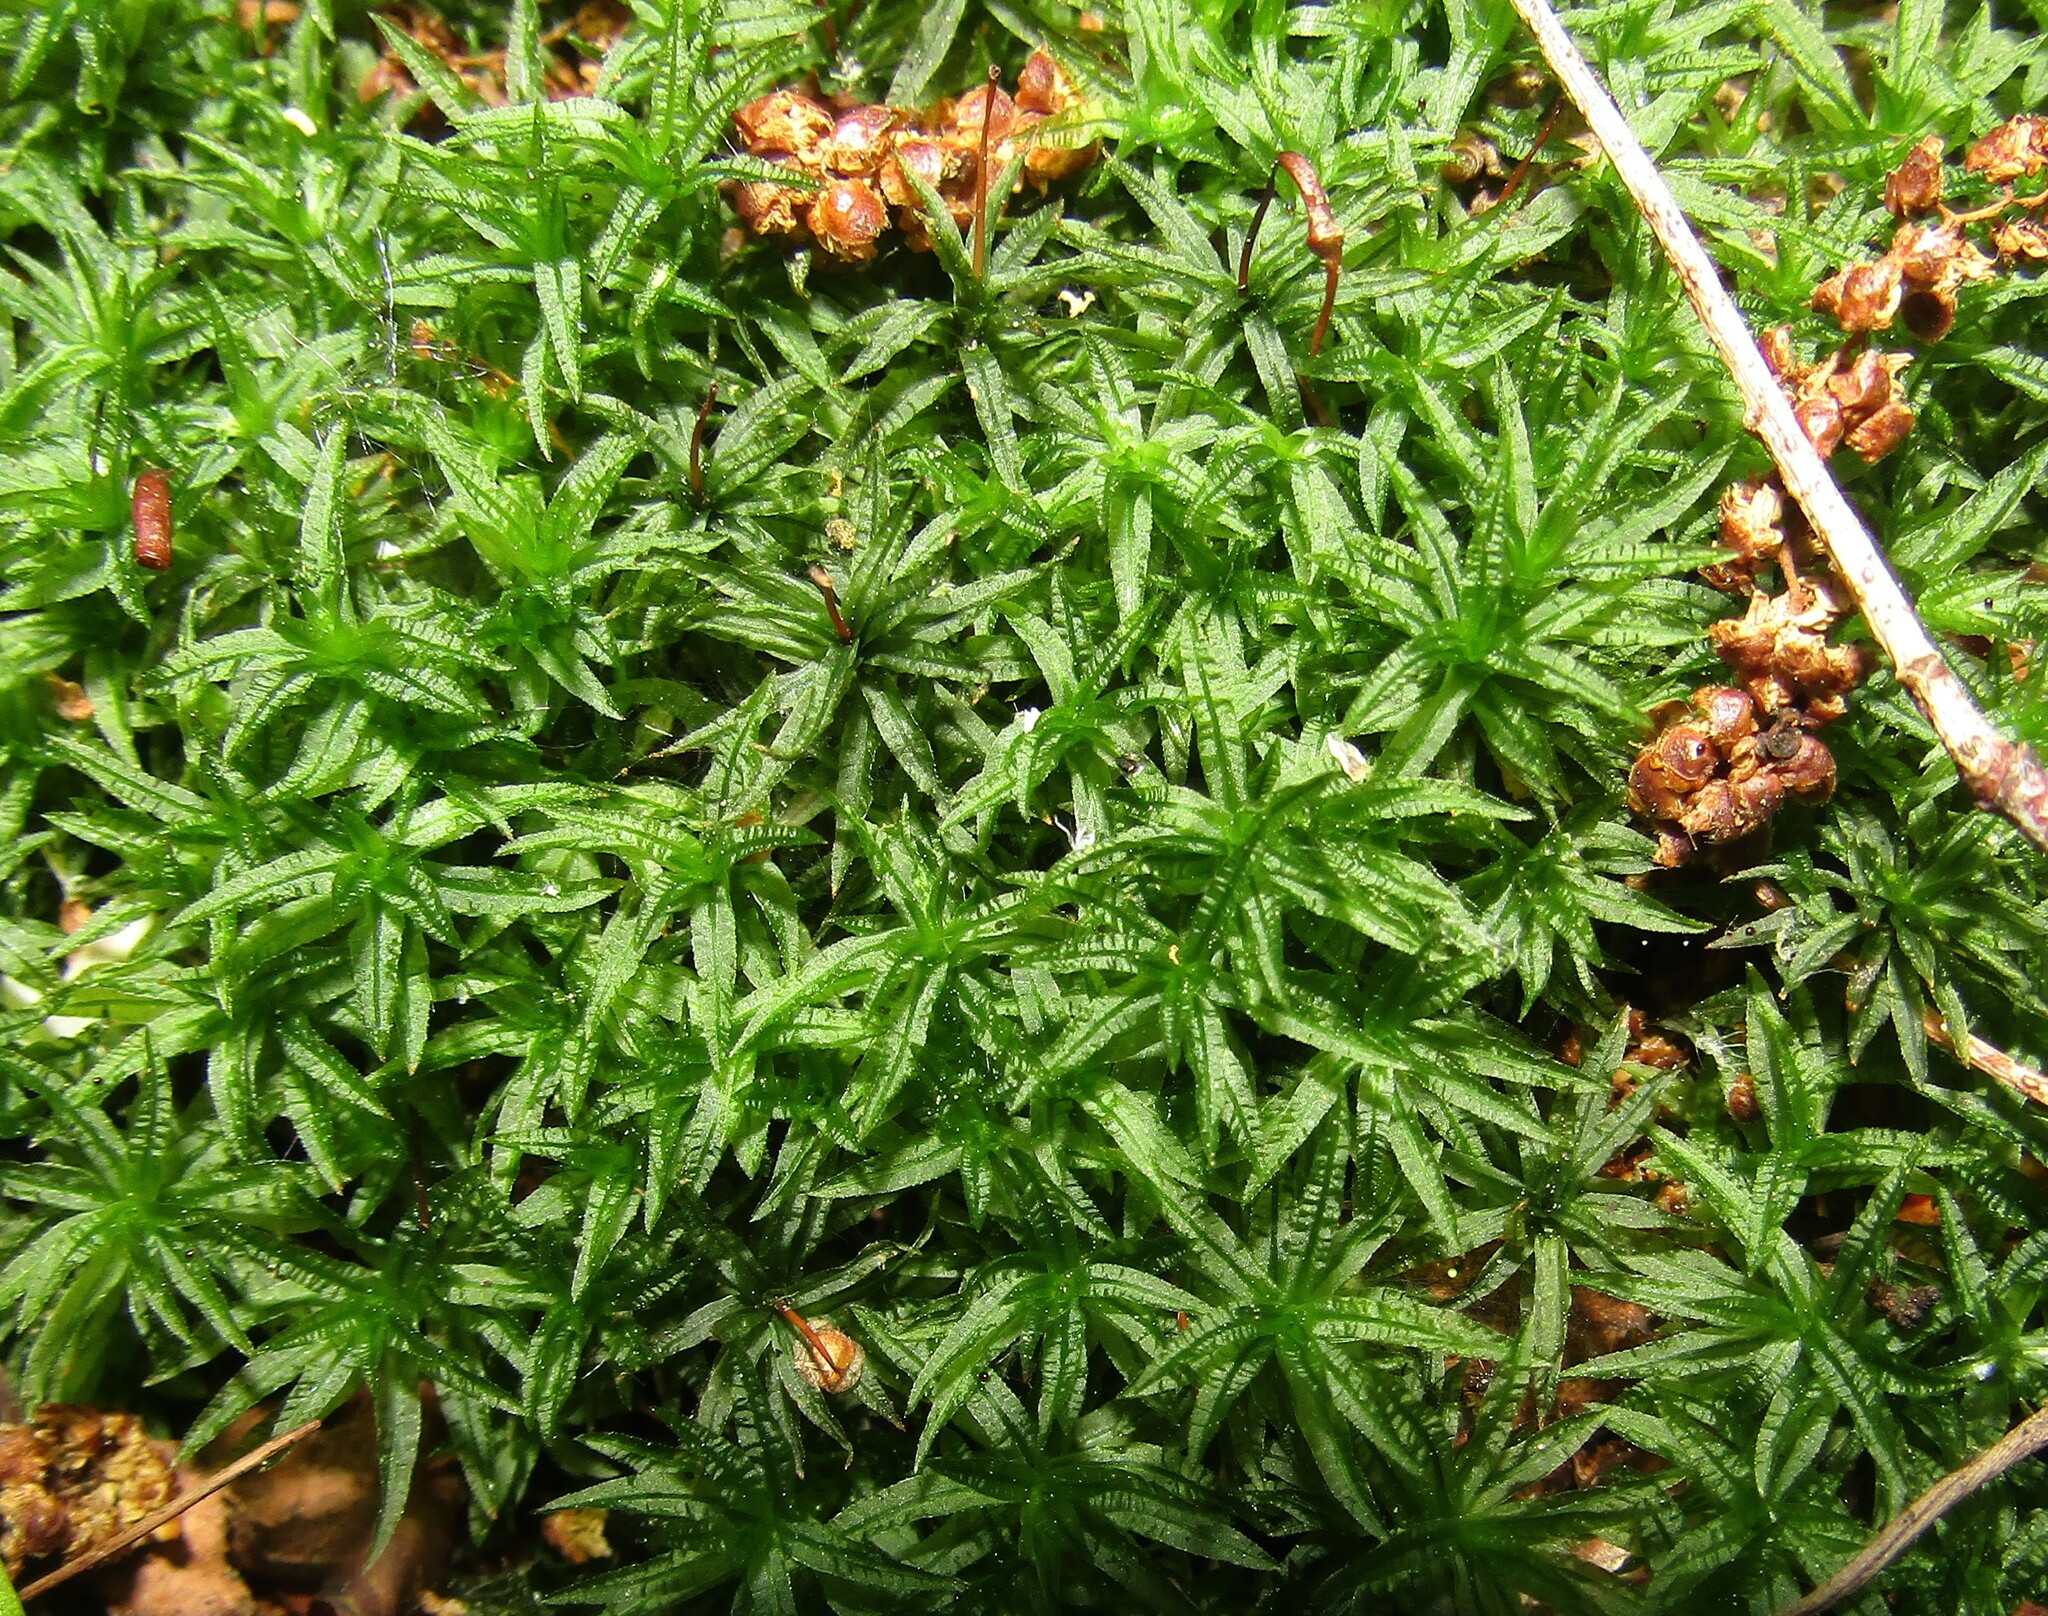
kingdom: Plantae
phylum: Bryophyta
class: Polytrichopsida
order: Polytrichales
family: Polytrichaceae
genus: Atrichum
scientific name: Atrichum undulatum
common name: Common smoothcap
